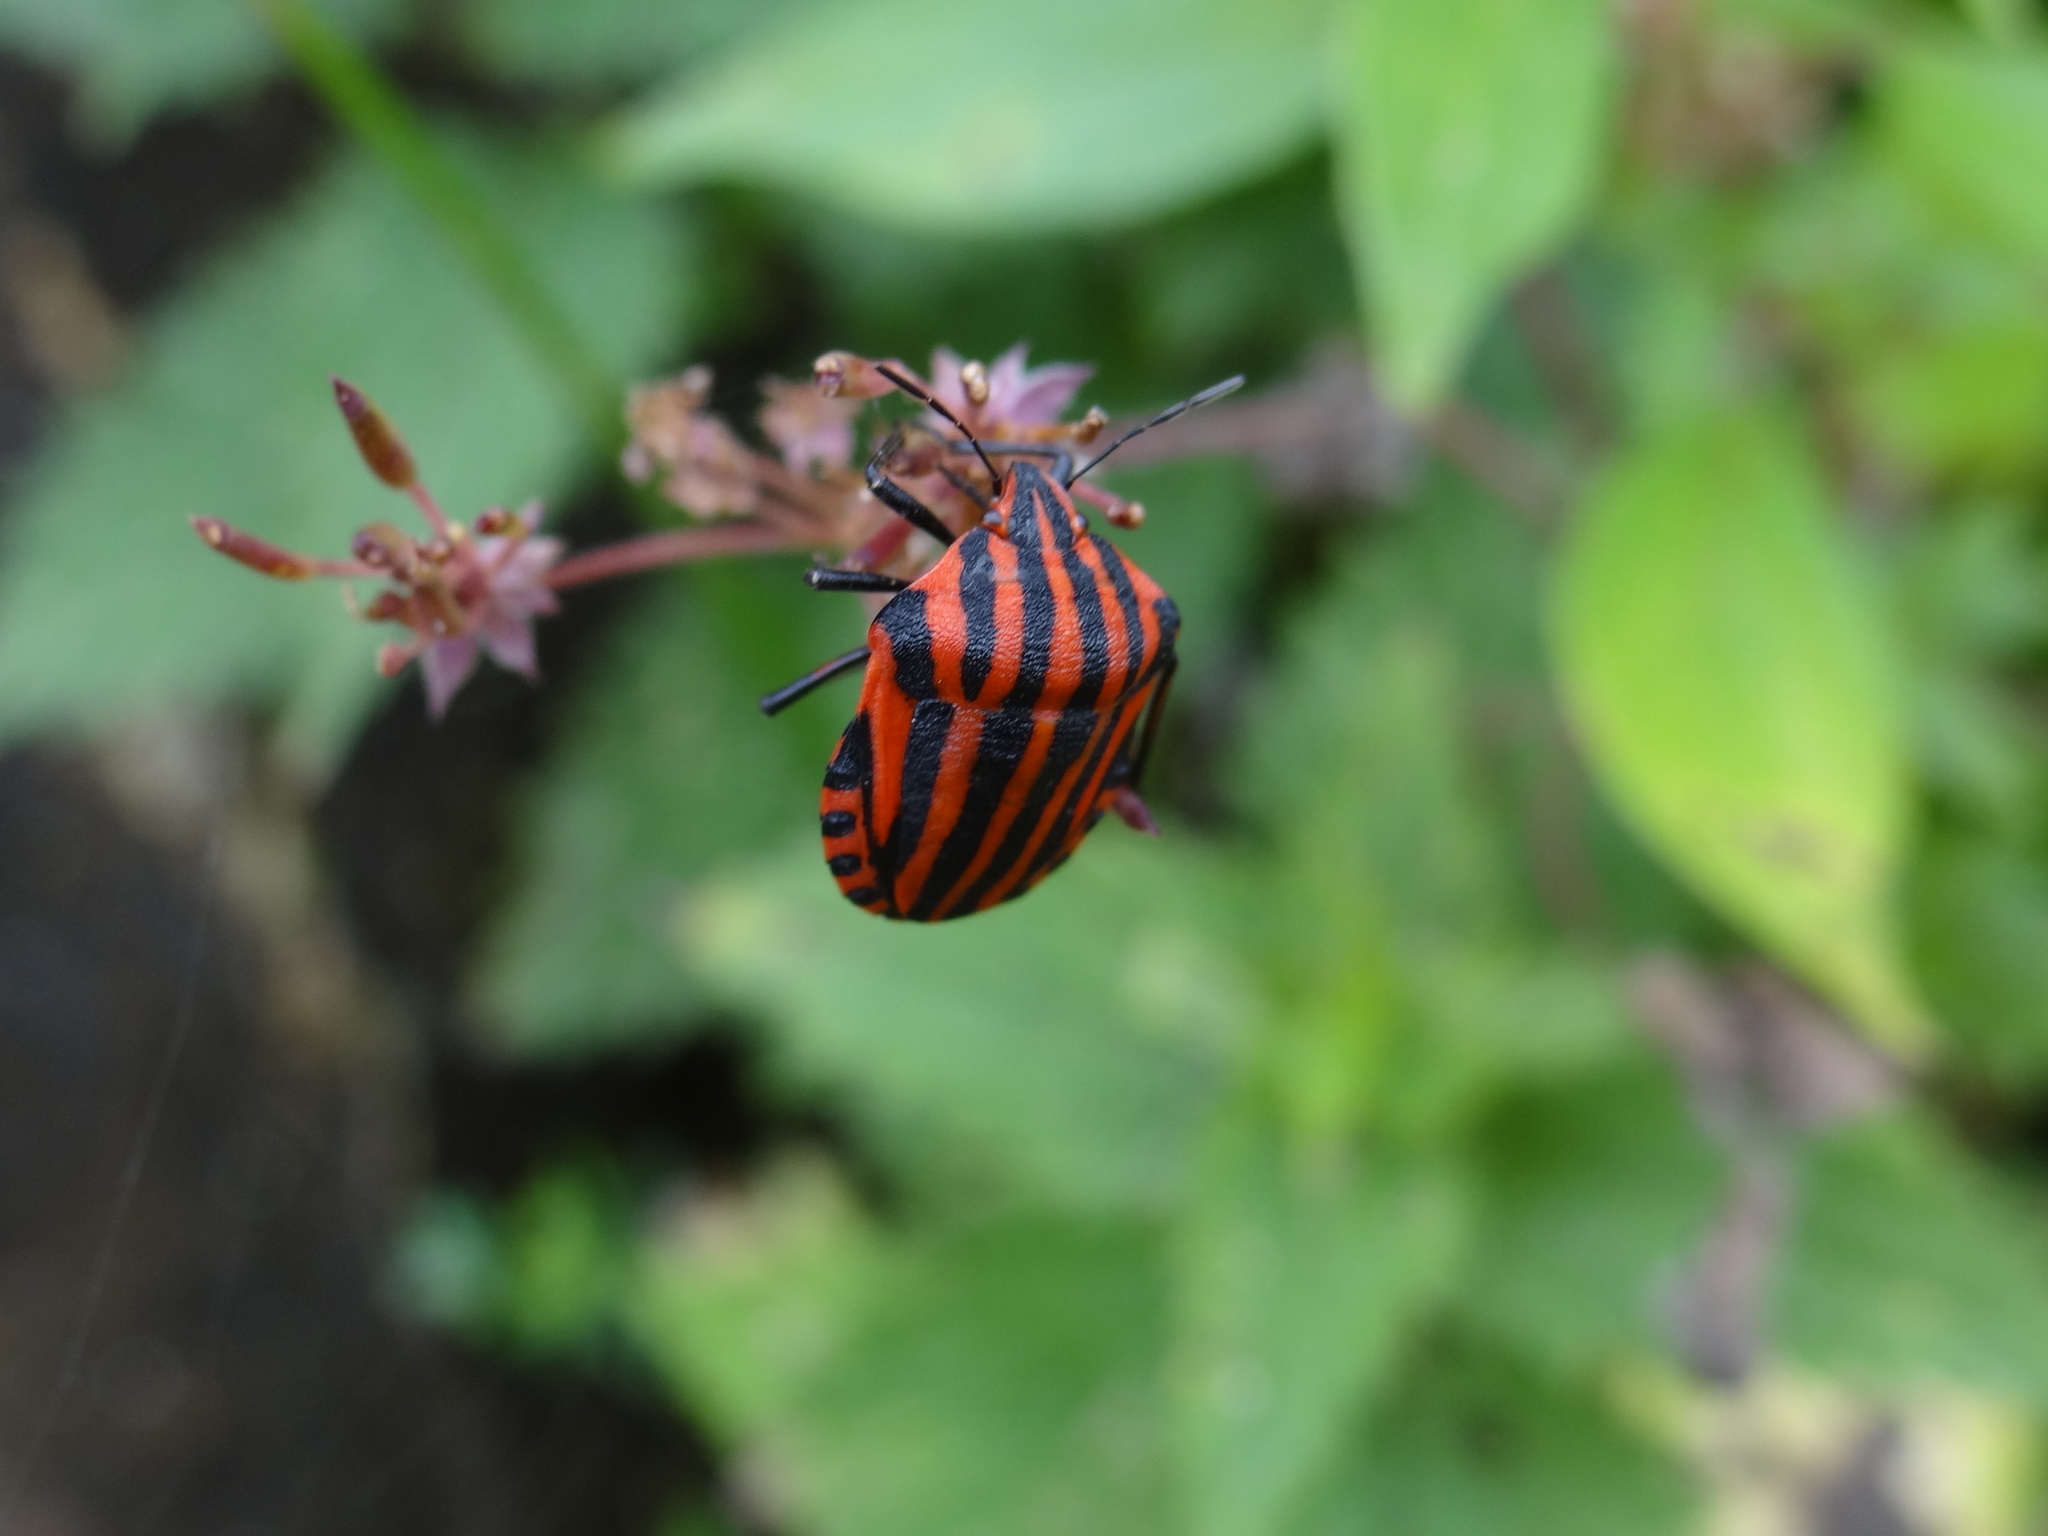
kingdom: Animalia
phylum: Arthropoda
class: Insecta
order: Hemiptera
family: Pentatomidae
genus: Graphosoma
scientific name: Graphosoma italicum
